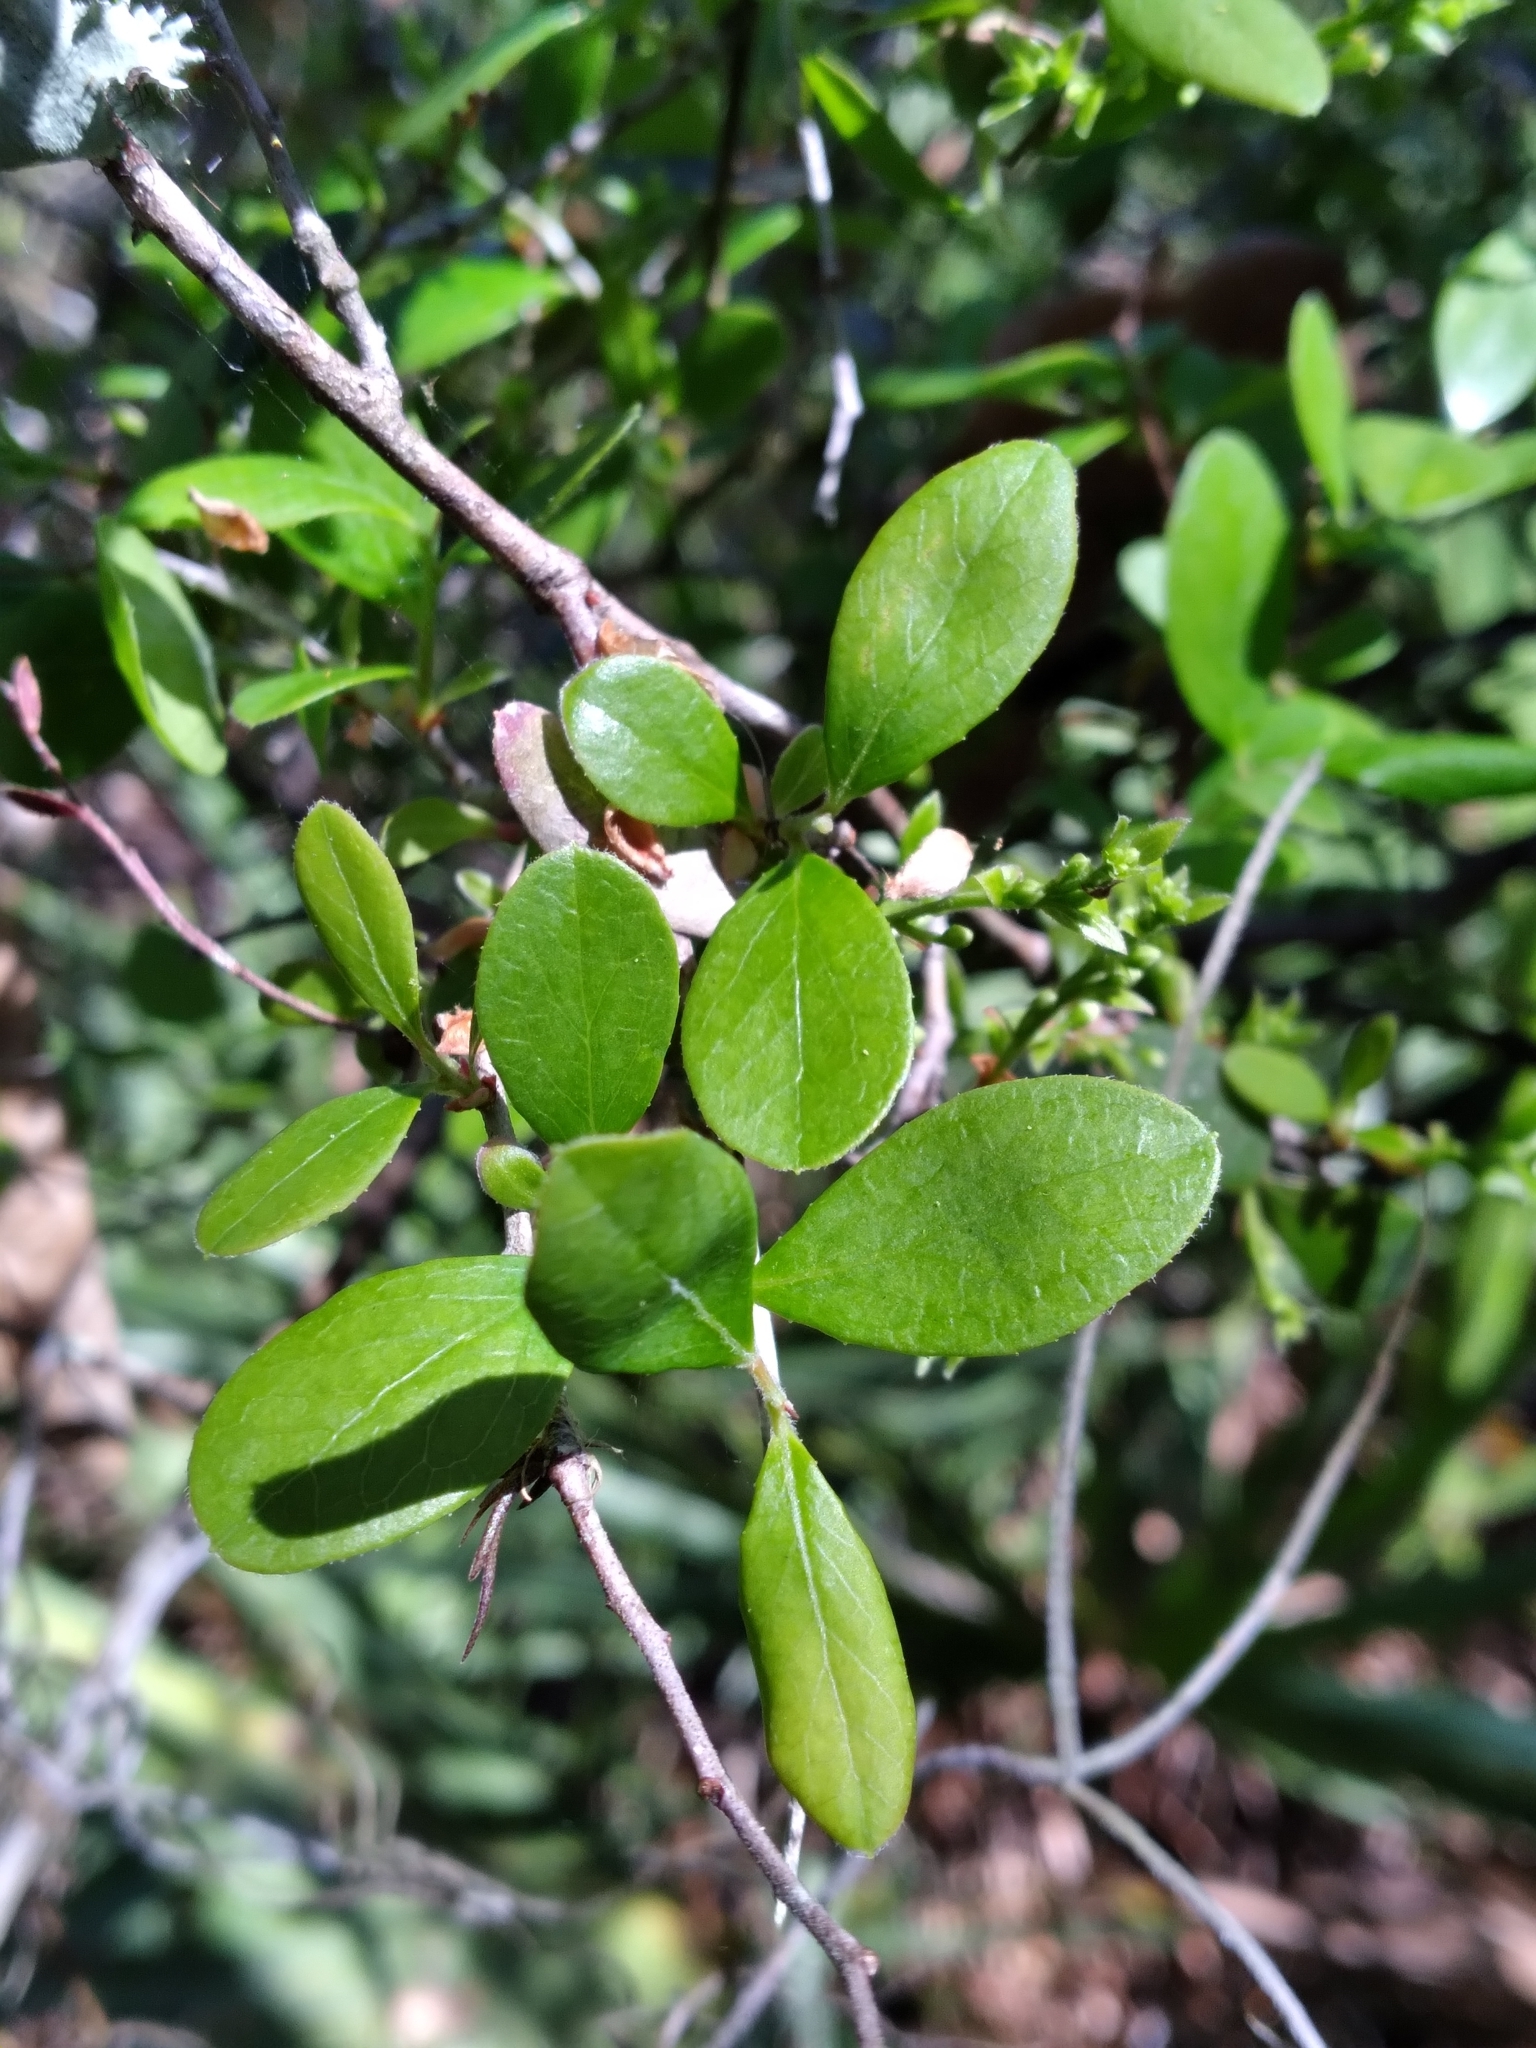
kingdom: Plantae
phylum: Tracheophyta
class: Magnoliopsida
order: Ericales
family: Ericaceae
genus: Vaccinium
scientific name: Vaccinium arboreum
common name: Farkleberry
